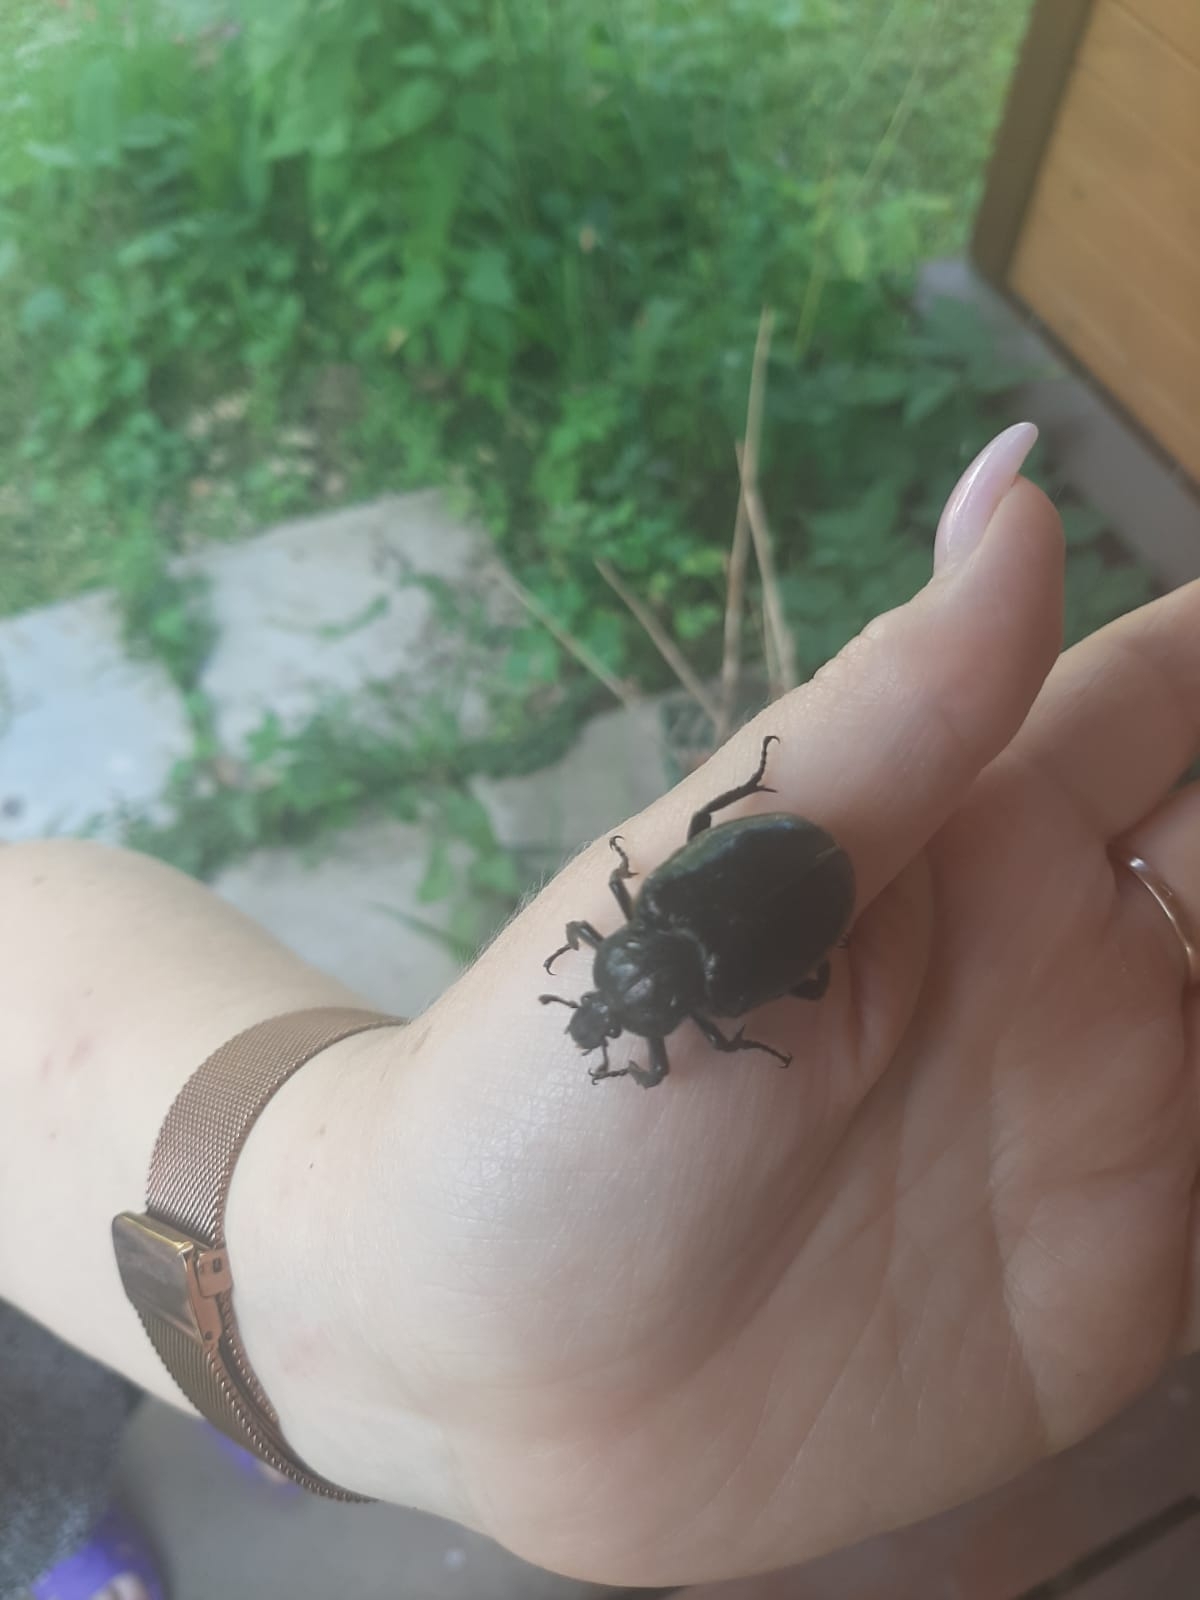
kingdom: Animalia
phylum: Arthropoda
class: Insecta
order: Coleoptera
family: Scarabaeidae
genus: Osmoderma
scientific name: Osmoderma barnabita
